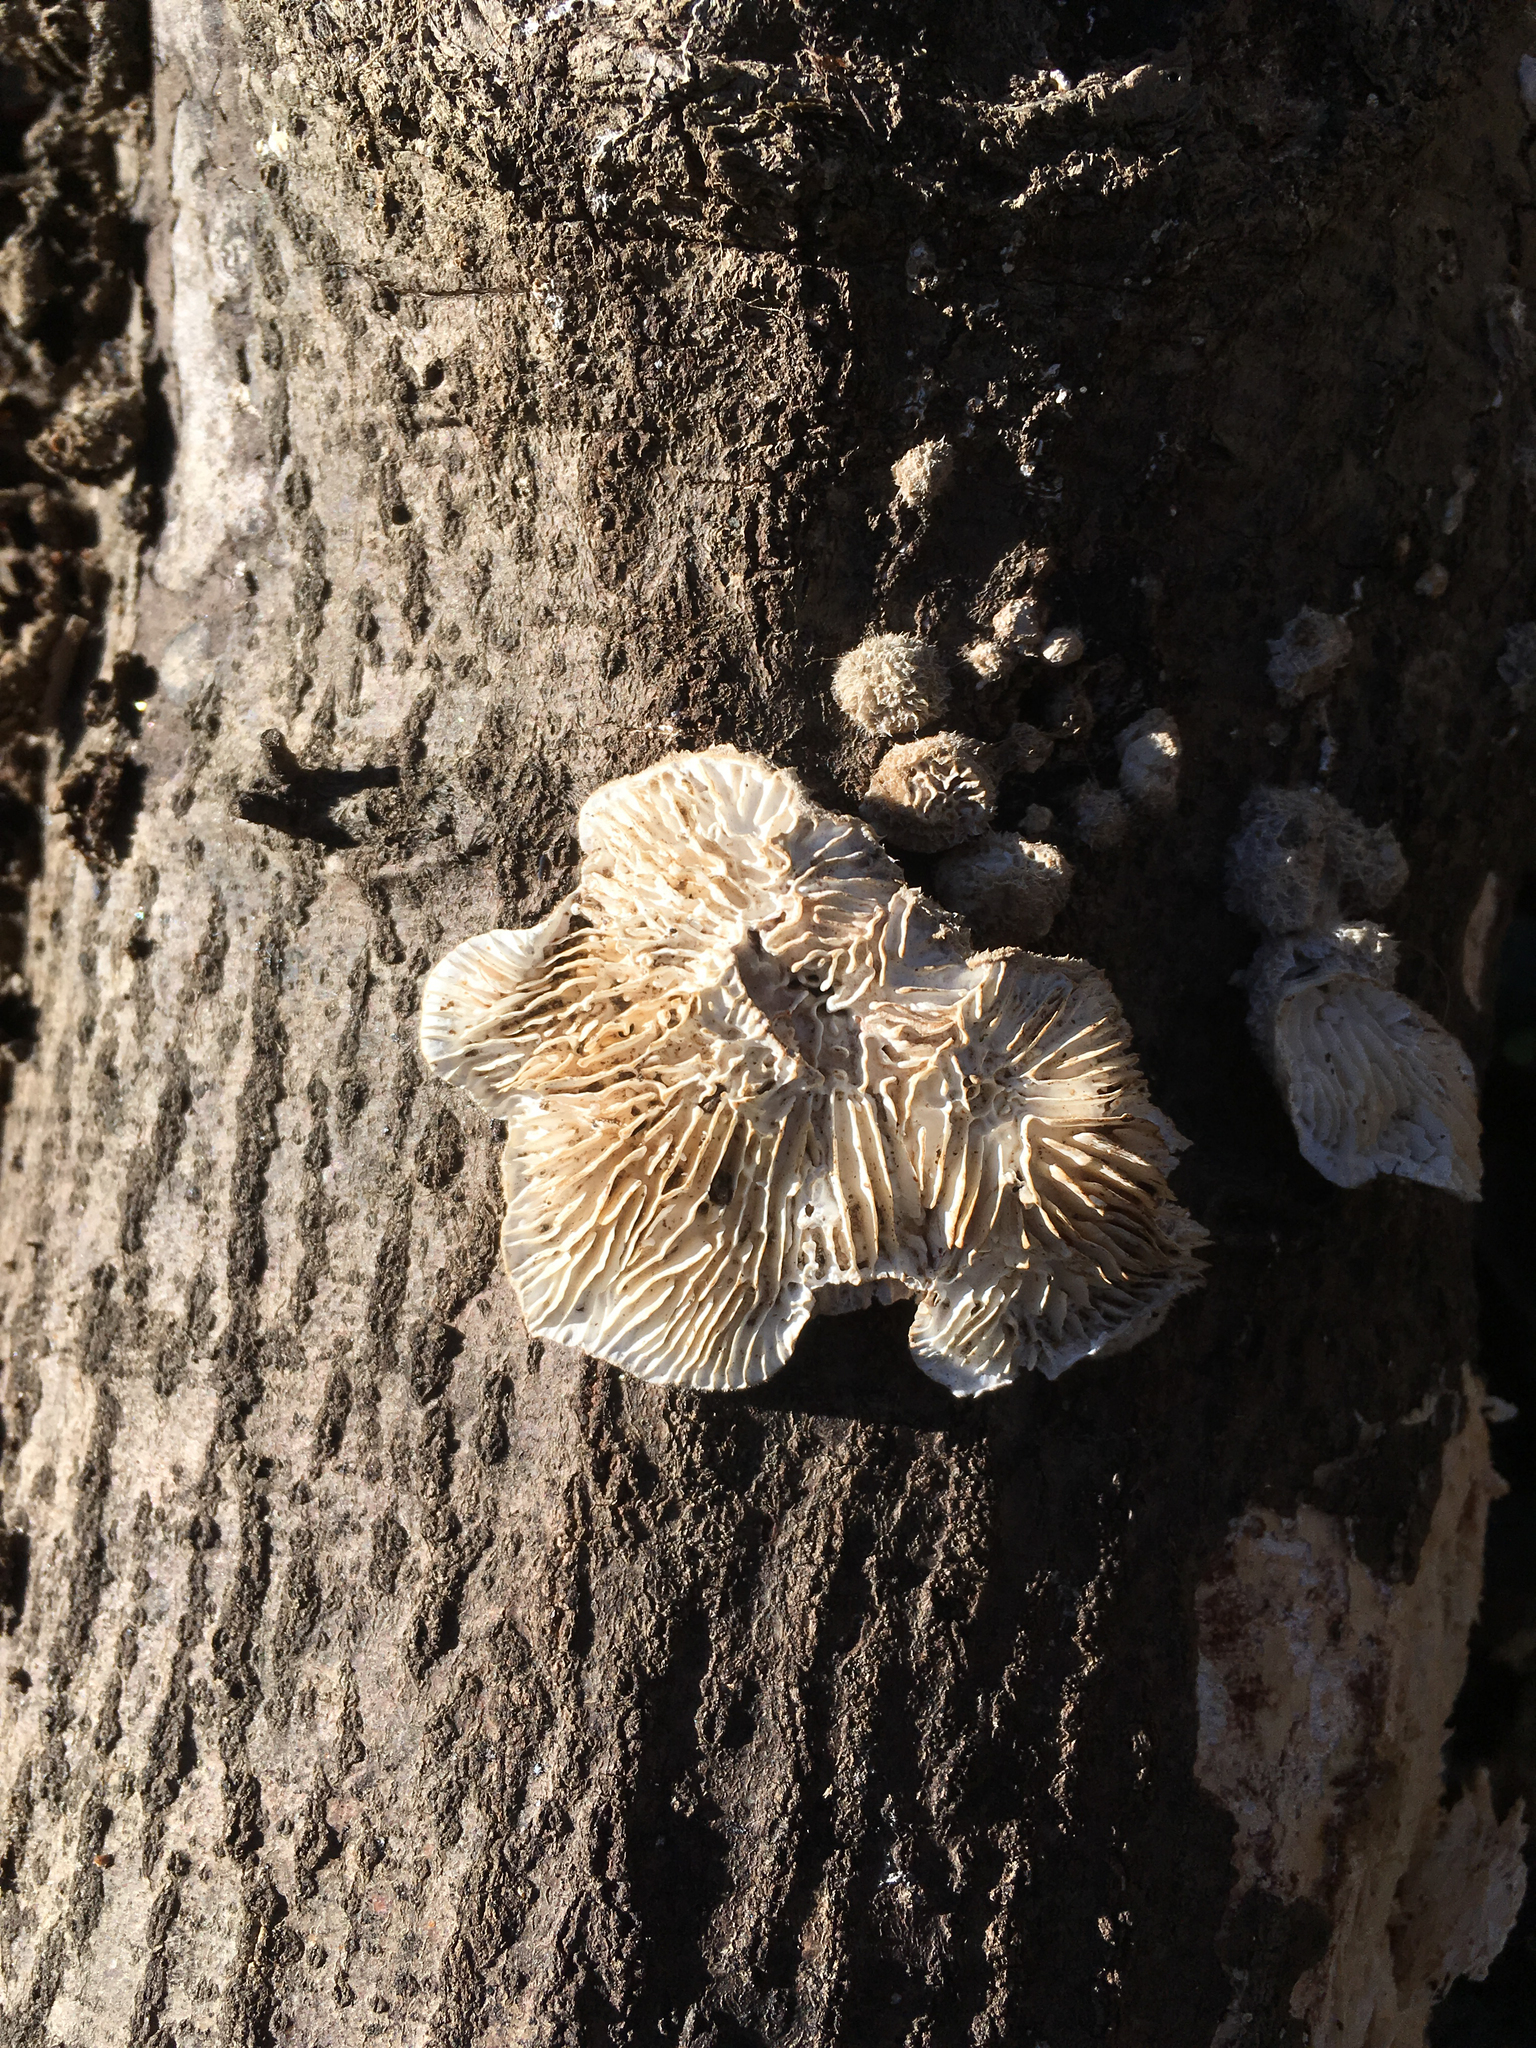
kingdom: Fungi
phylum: Basidiomycota
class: Agaricomycetes
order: Polyporales
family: Polyporaceae
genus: Lenzites
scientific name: Lenzites betulinus
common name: Birch mazegill
